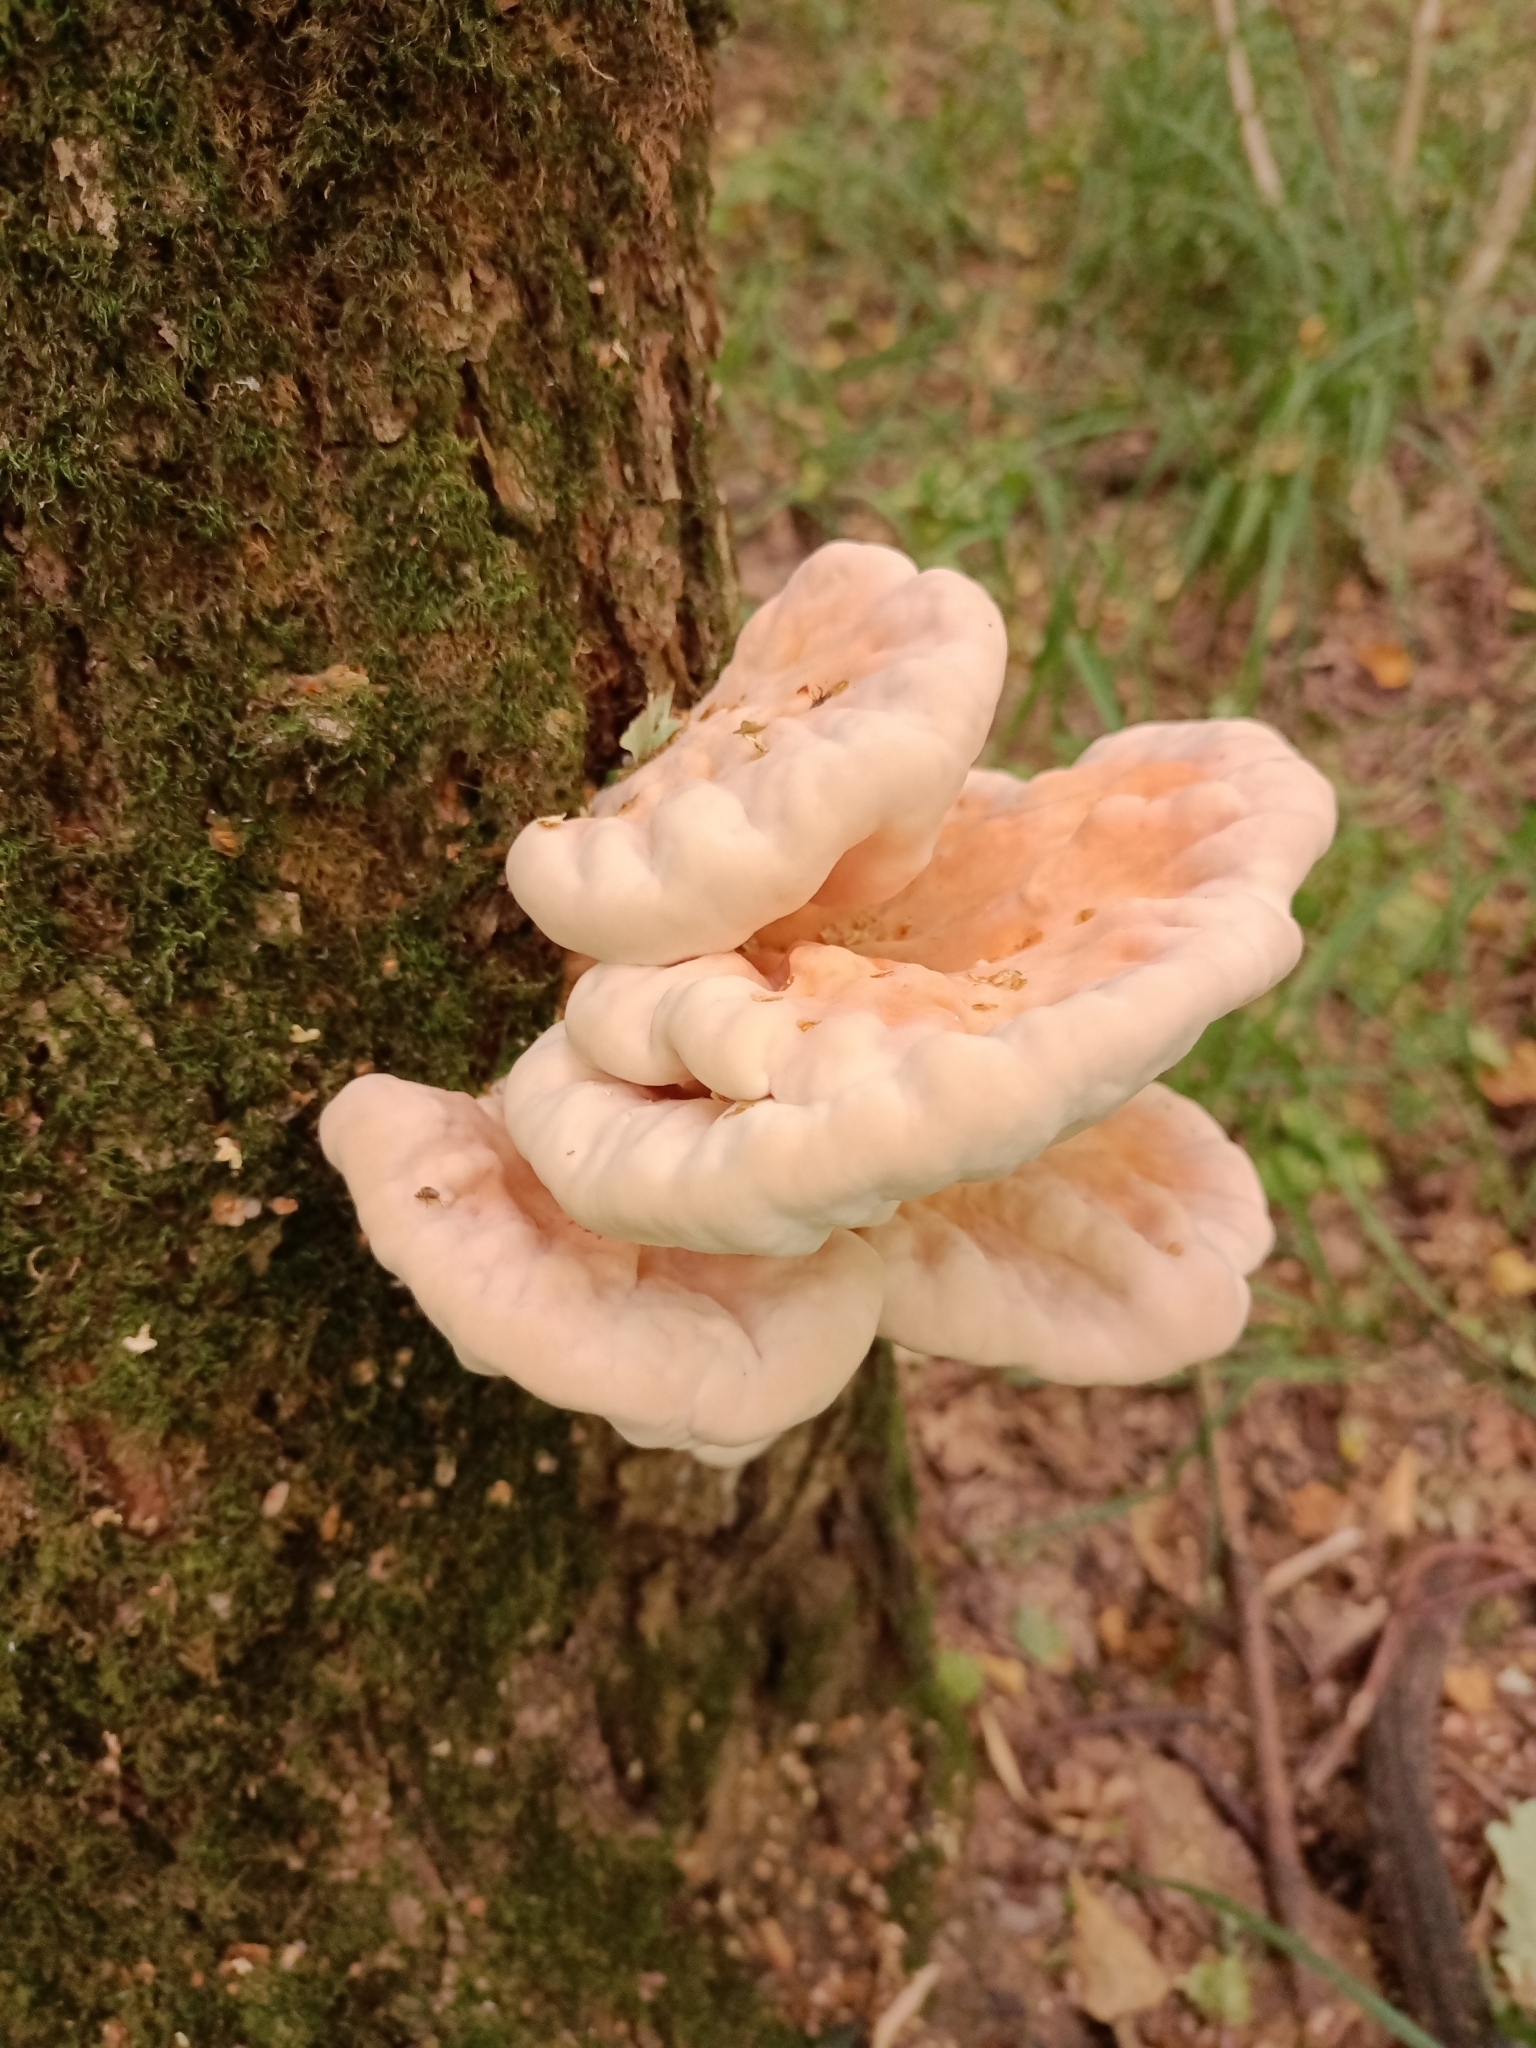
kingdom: Fungi
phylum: Basidiomycota
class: Agaricomycetes
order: Polyporales
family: Laetiporaceae
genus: Laetiporus
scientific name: Laetiporus sulphureus
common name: Chicken of the woods
